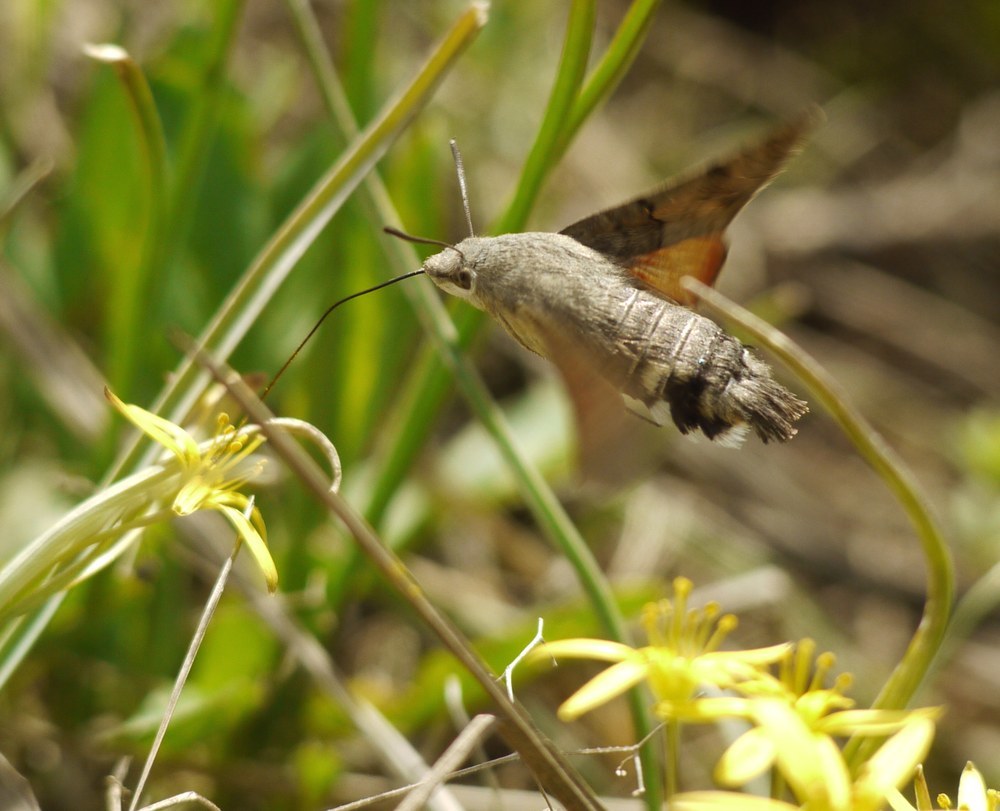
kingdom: Animalia
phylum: Arthropoda
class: Insecta
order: Lepidoptera
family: Sphingidae
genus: Macroglossum
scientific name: Macroglossum stellatarum
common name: Humming-bird hawk-moth
